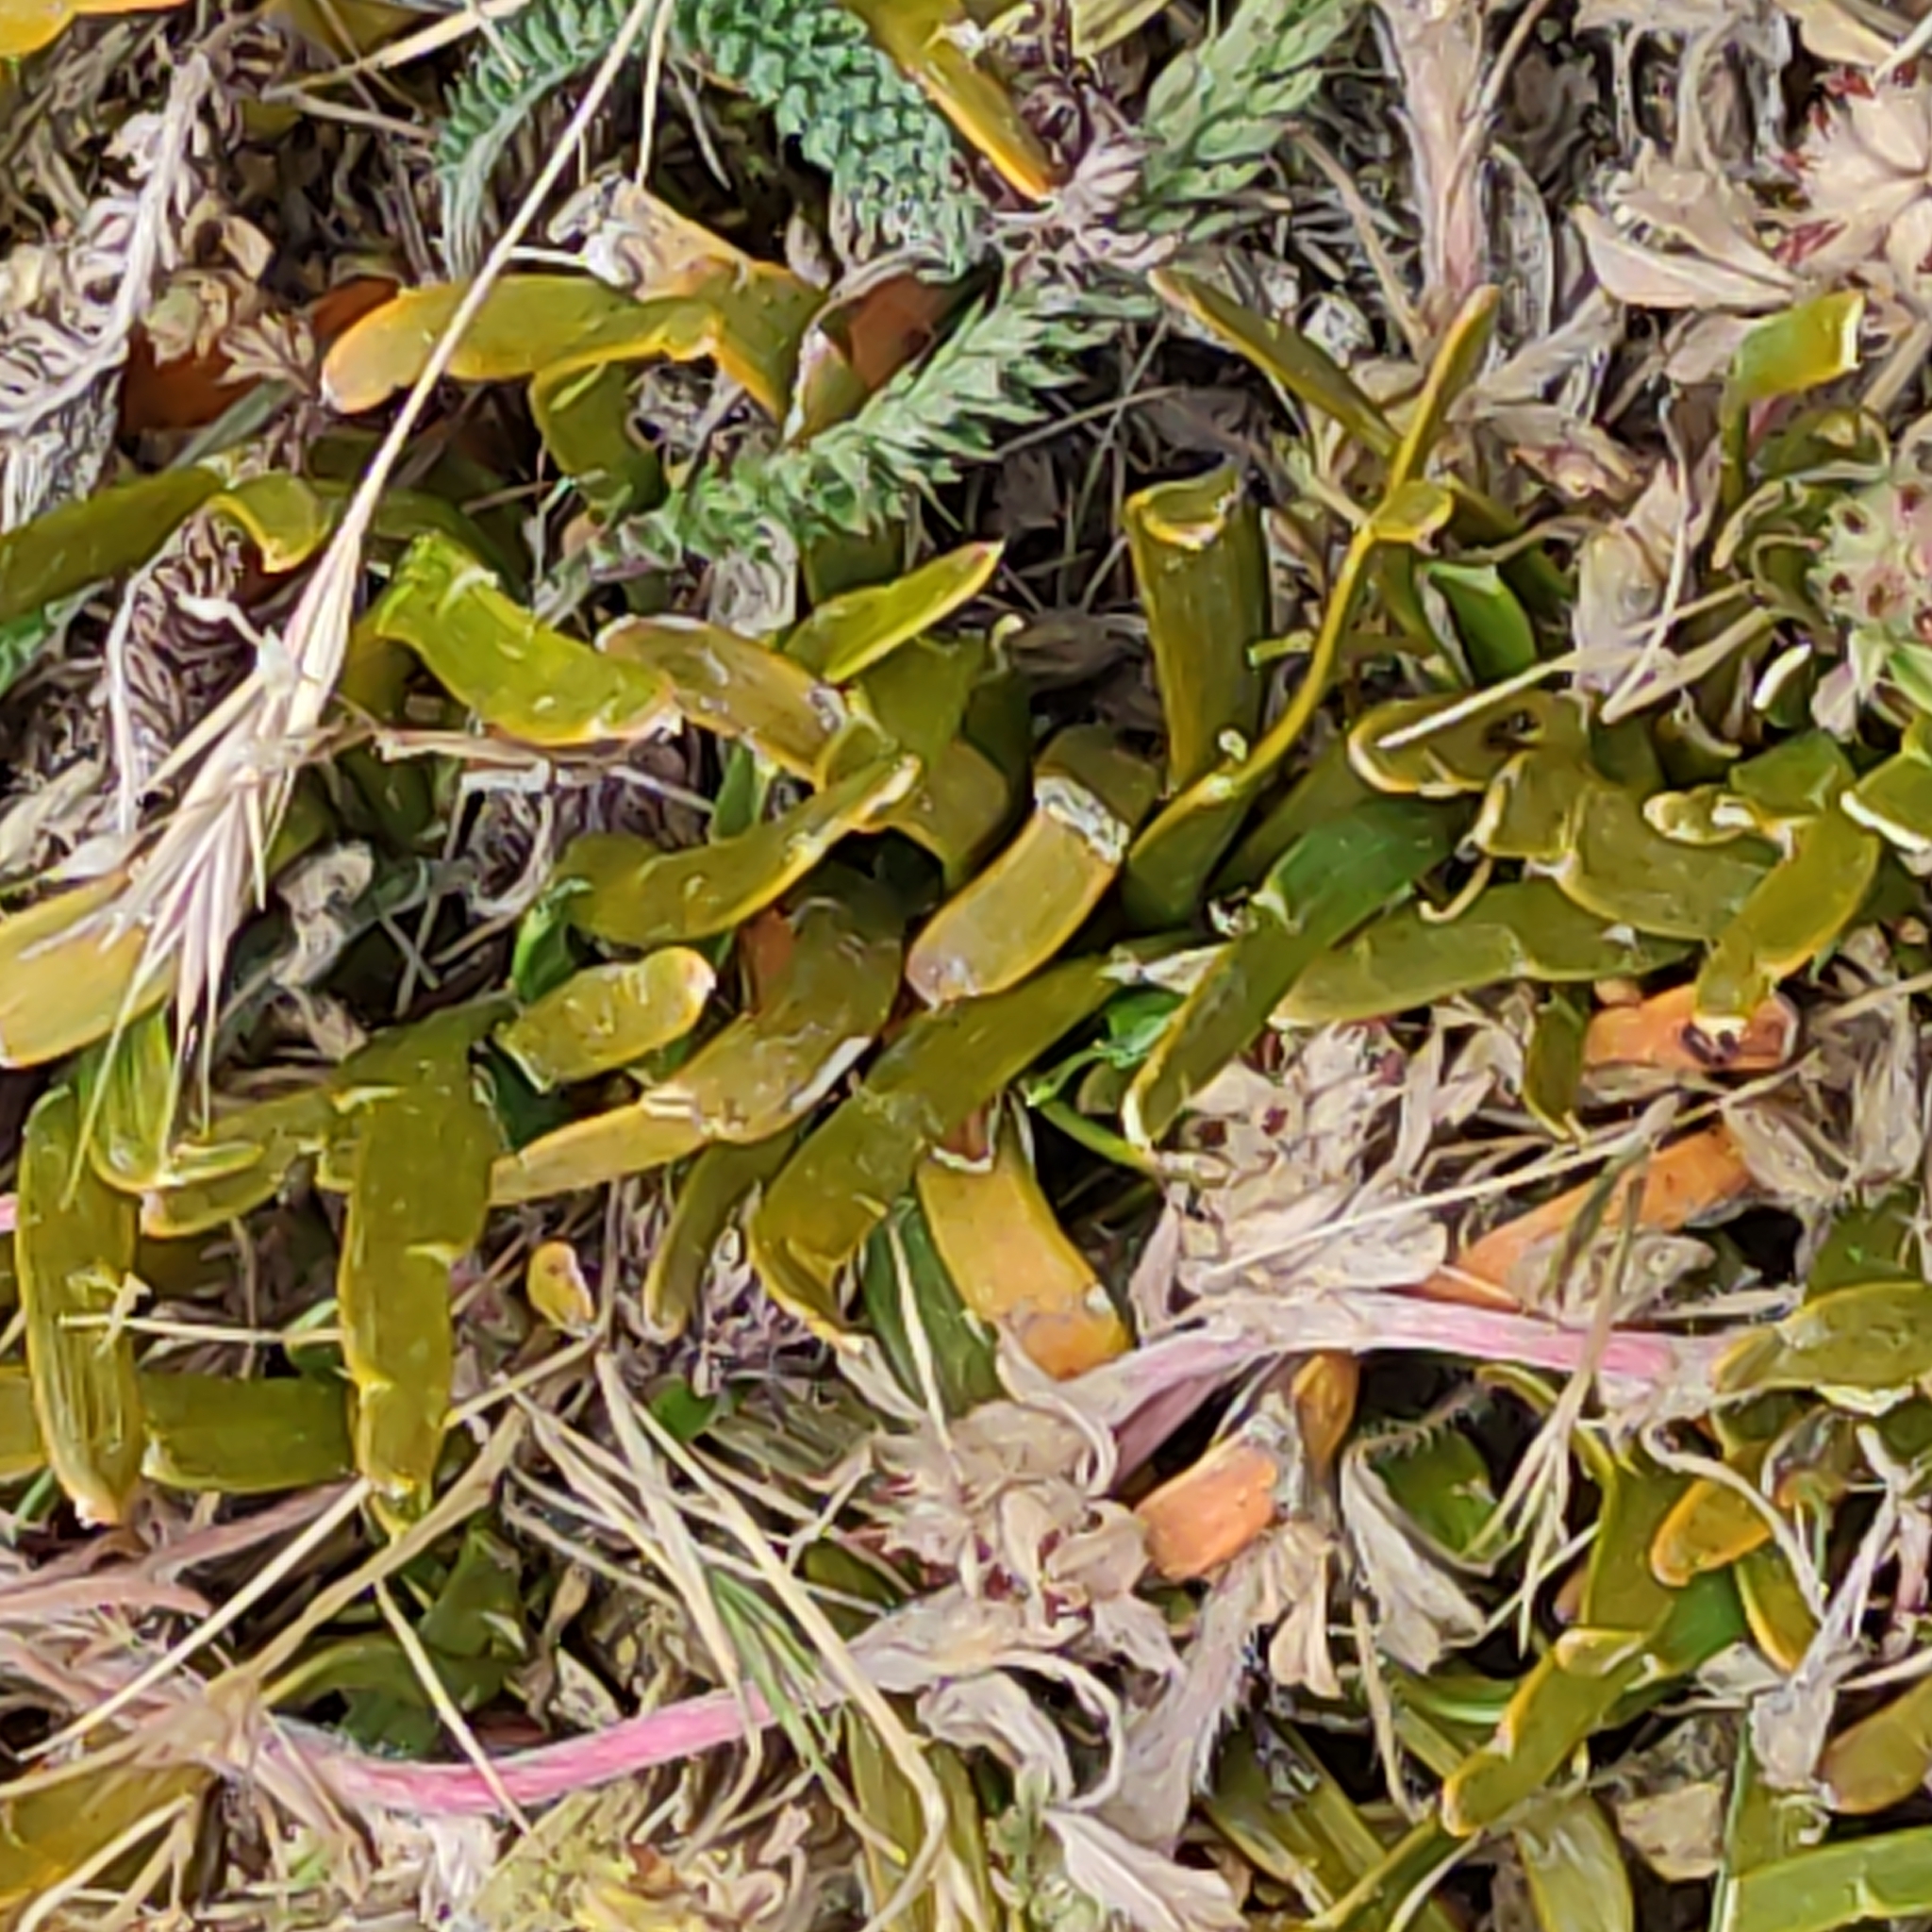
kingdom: Plantae
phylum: Tracheophyta
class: Magnoliopsida
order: Fabales
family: Fabaceae
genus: Carmichaelia
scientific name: Carmichaelia corrugata
